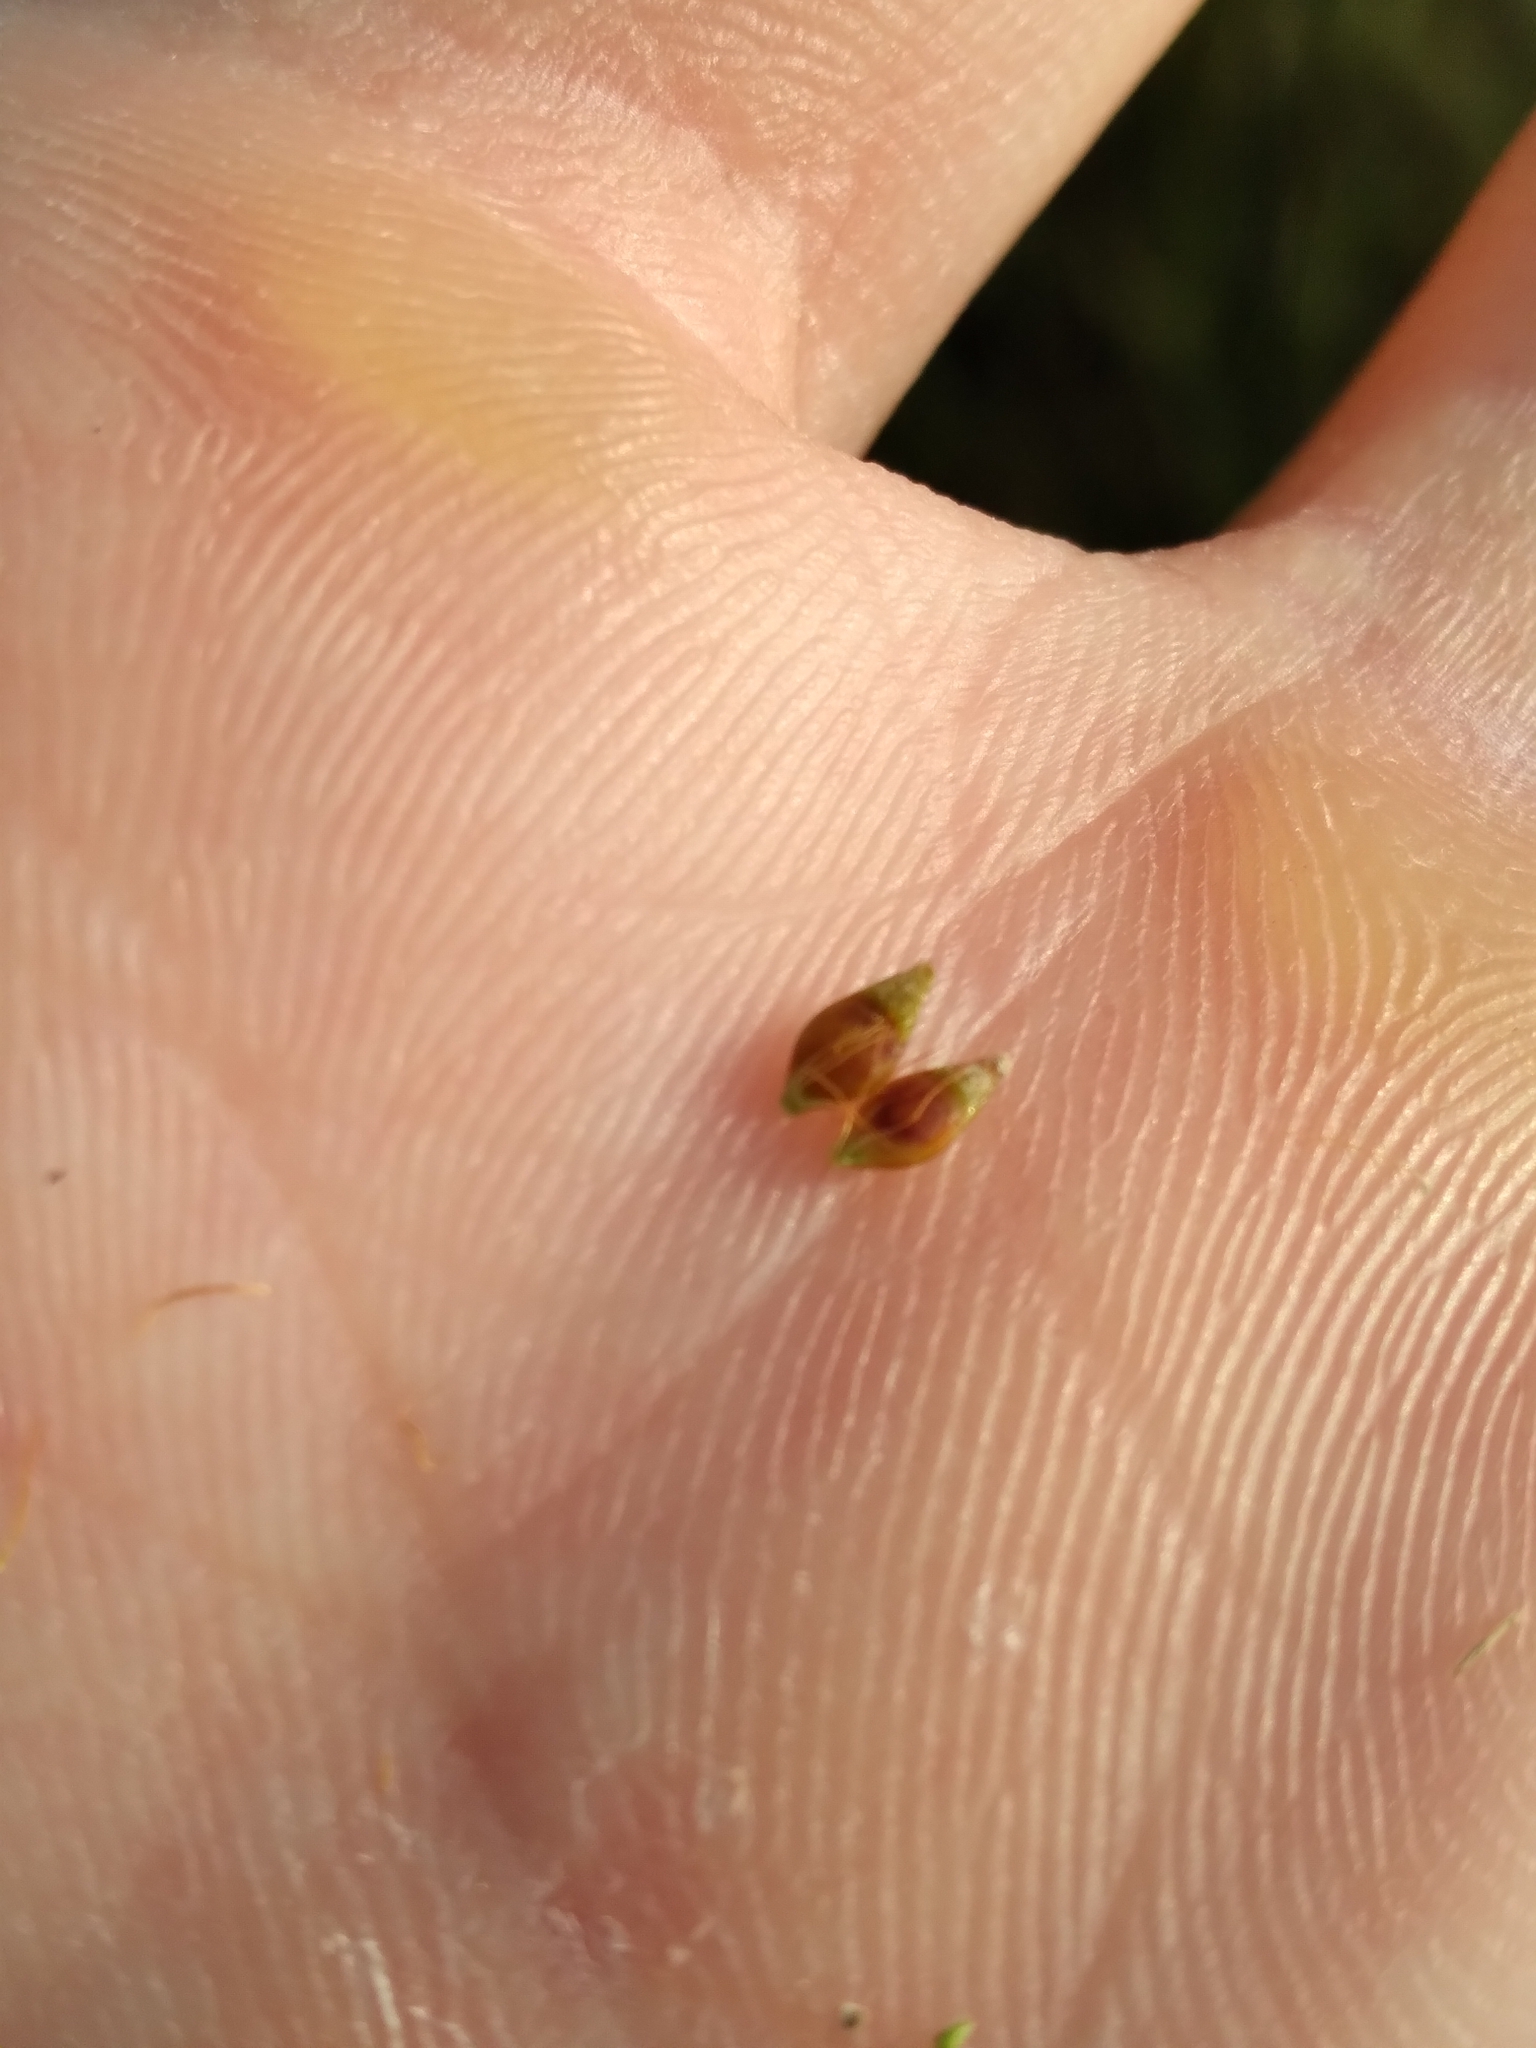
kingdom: Plantae
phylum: Tracheophyta
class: Liliopsida
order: Poales
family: Cyperaceae
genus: Rhynchospora
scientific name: Rhynchospora baldwinii
